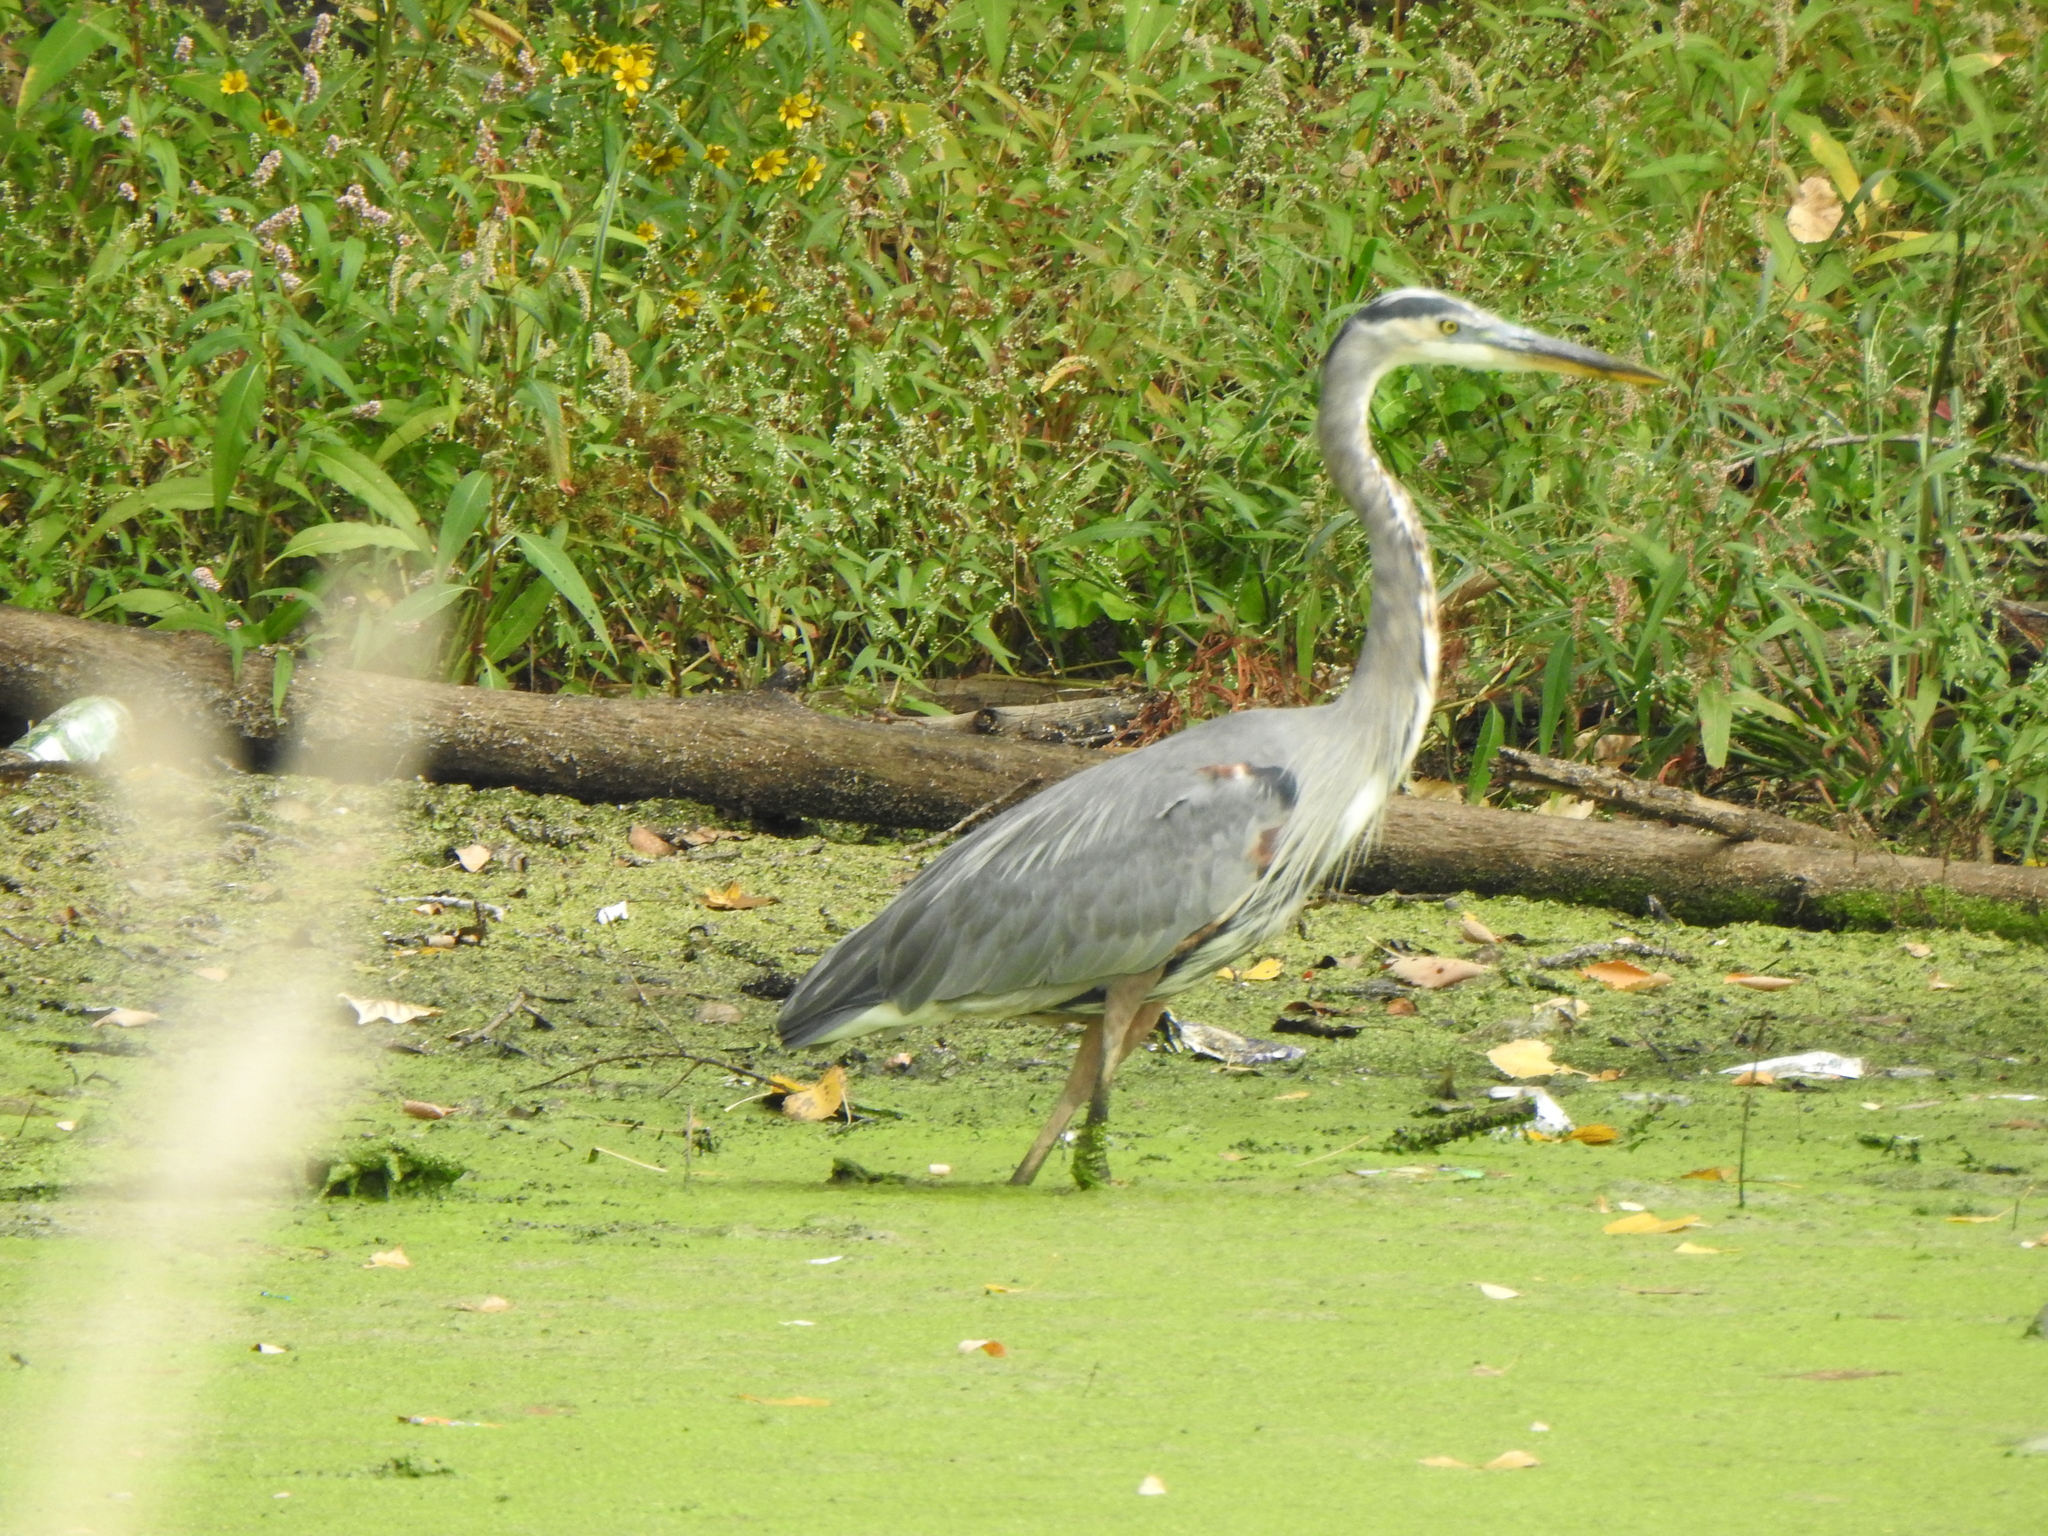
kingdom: Animalia
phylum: Chordata
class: Aves
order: Pelecaniformes
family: Ardeidae
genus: Ardea
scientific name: Ardea herodias
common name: Great blue heron
